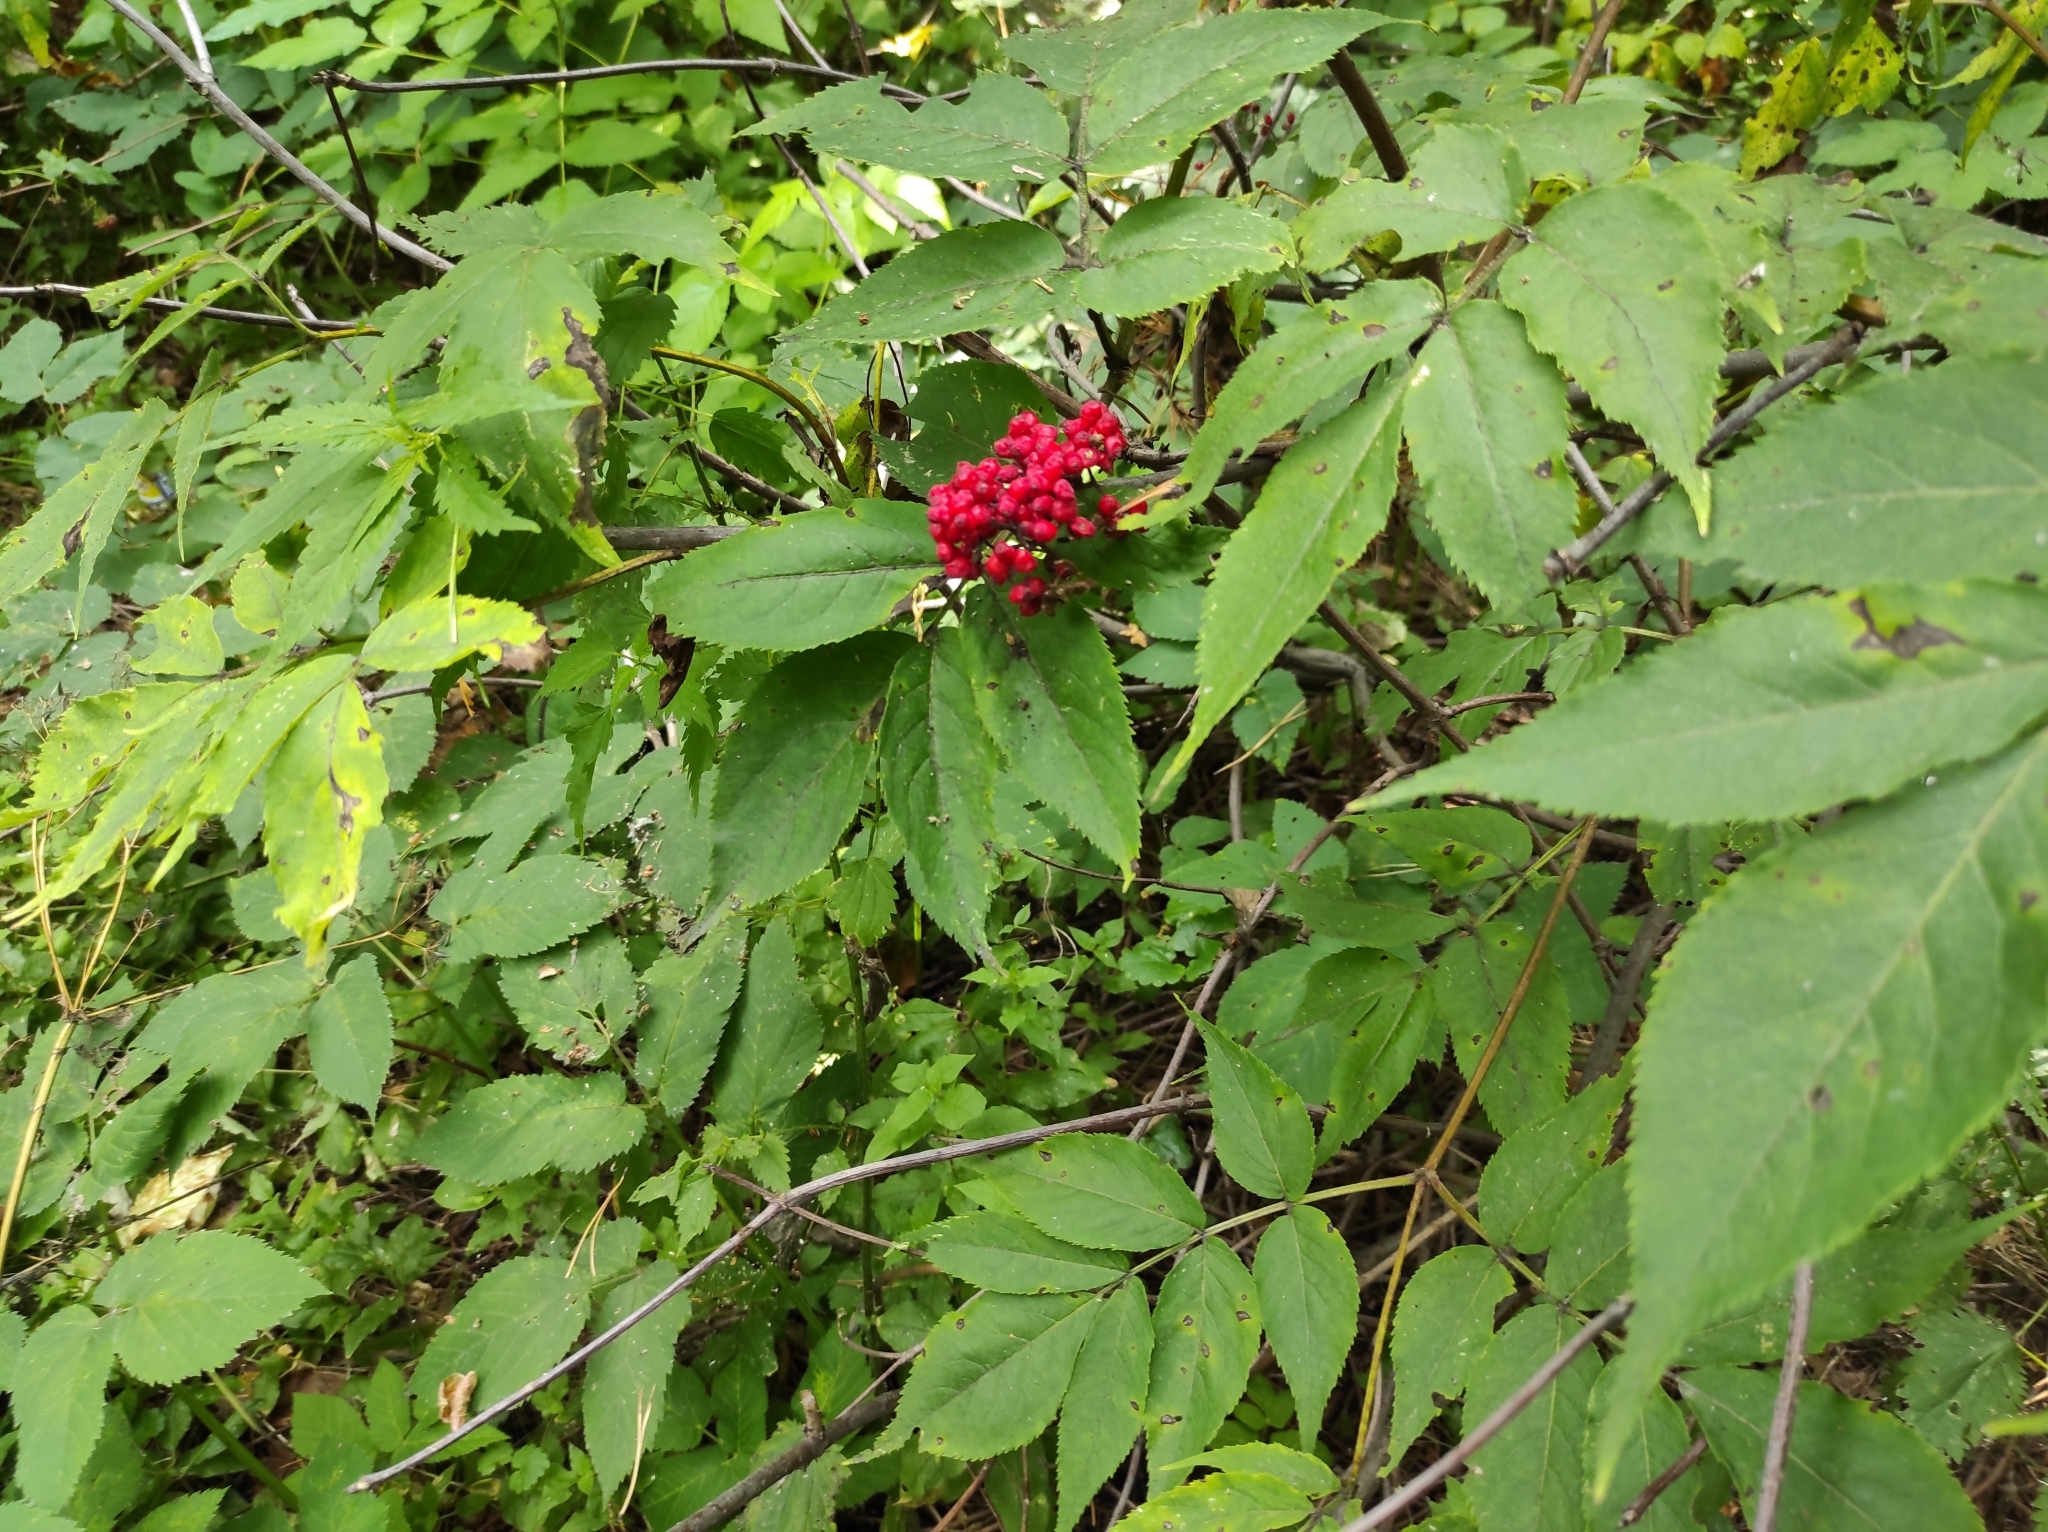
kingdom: Plantae
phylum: Tracheophyta
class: Magnoliopsida
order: Dipsacales
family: Viburnaceae
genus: Sambucus
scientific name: Sambucus racemosa
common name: Red-berried elder
